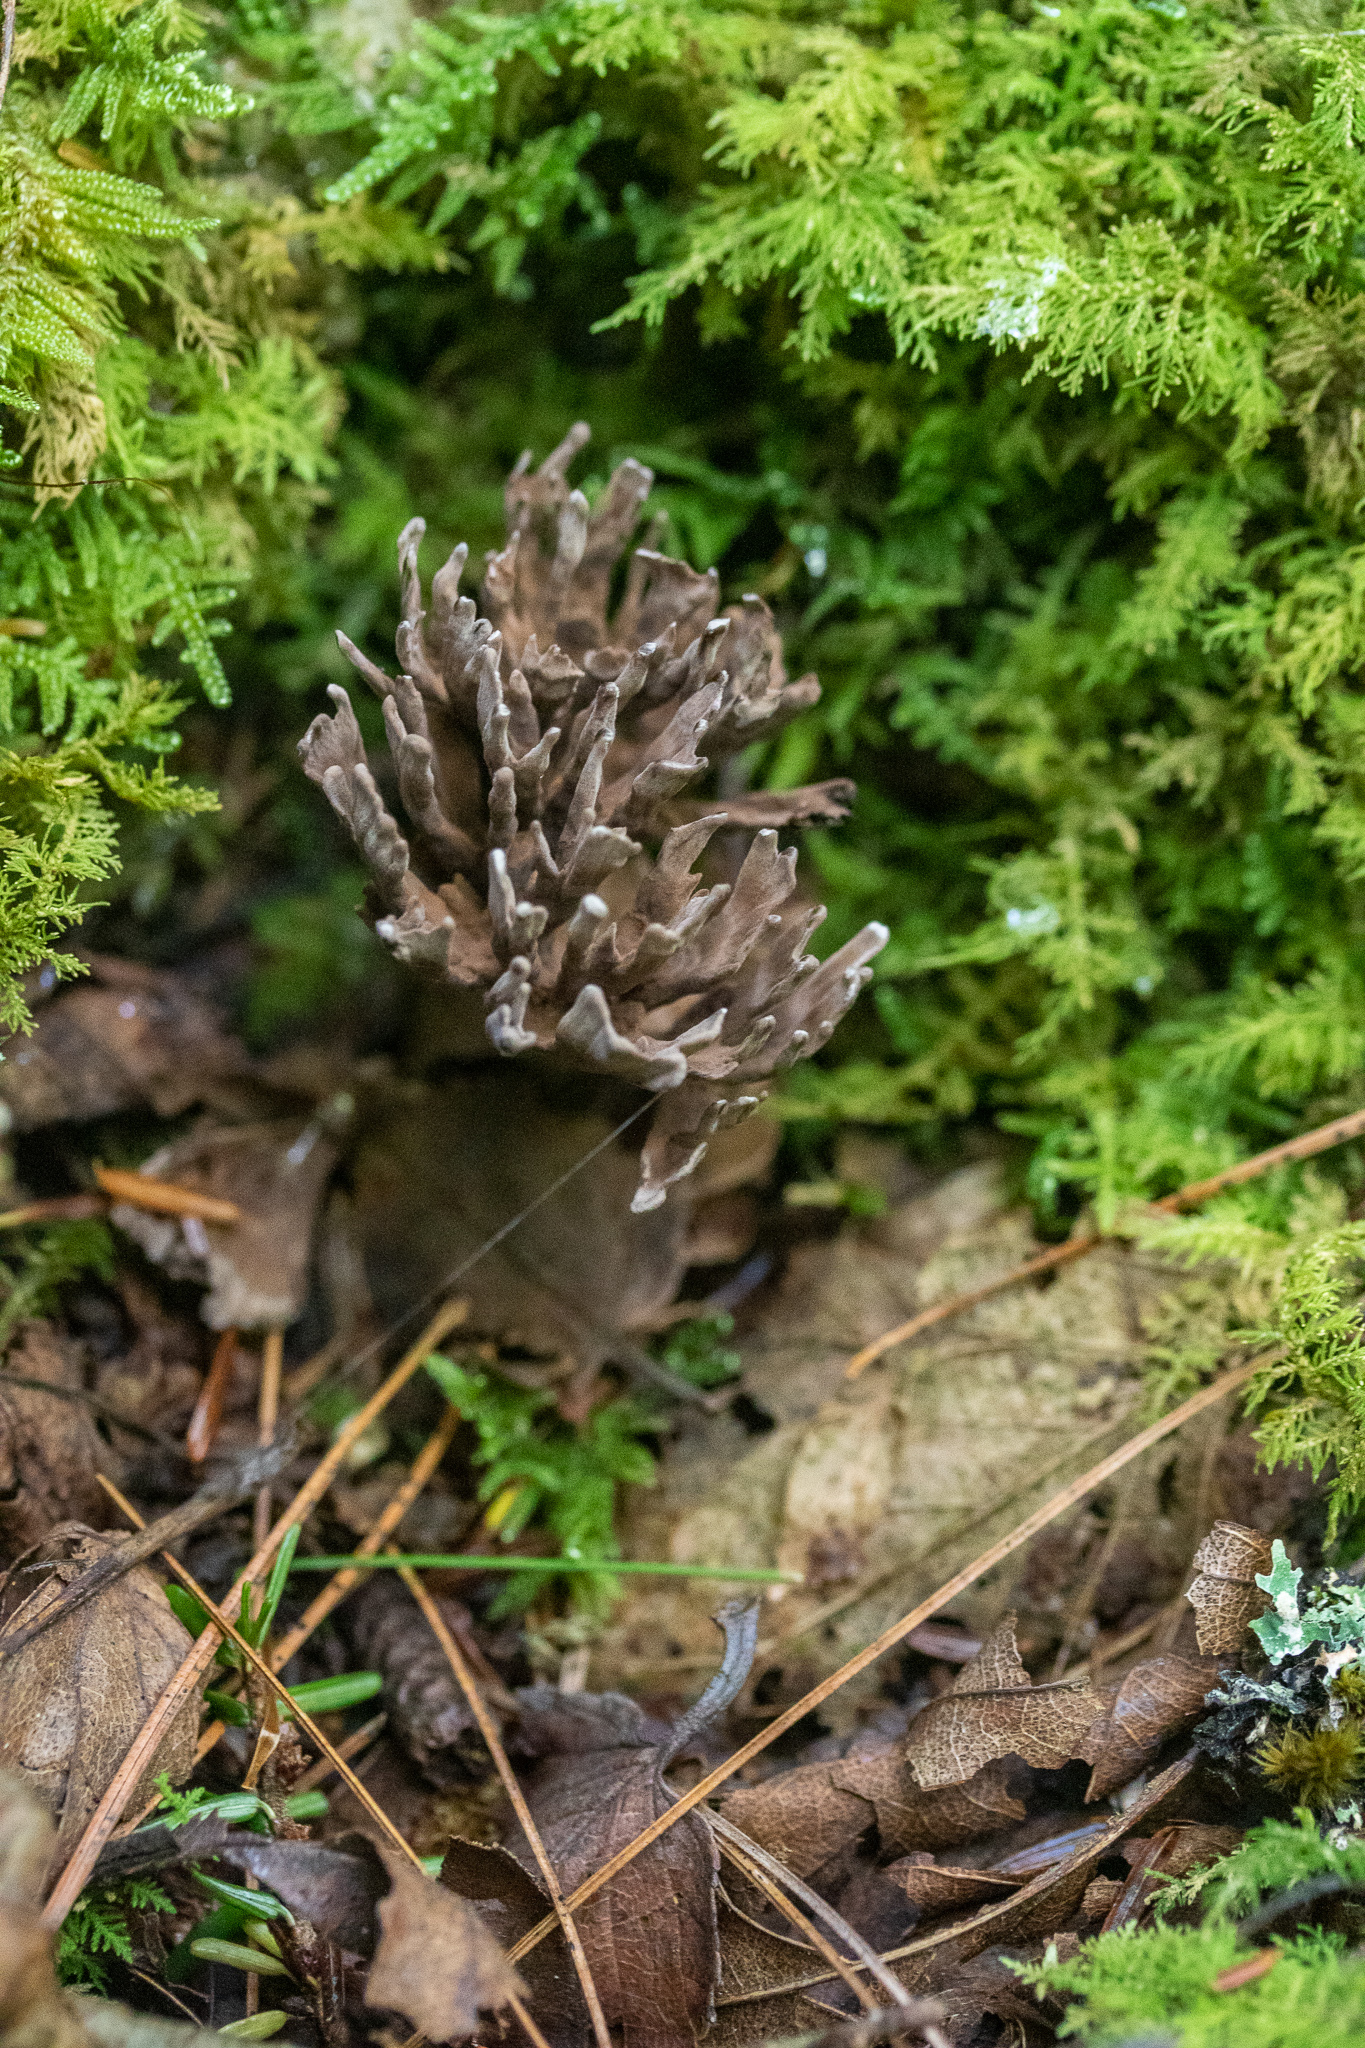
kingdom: Fungi
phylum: Basidiomycota
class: Agaricomycetes
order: Thelephorales
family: Thelephoraceae
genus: Thelephora
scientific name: Thelephora anthocephala
